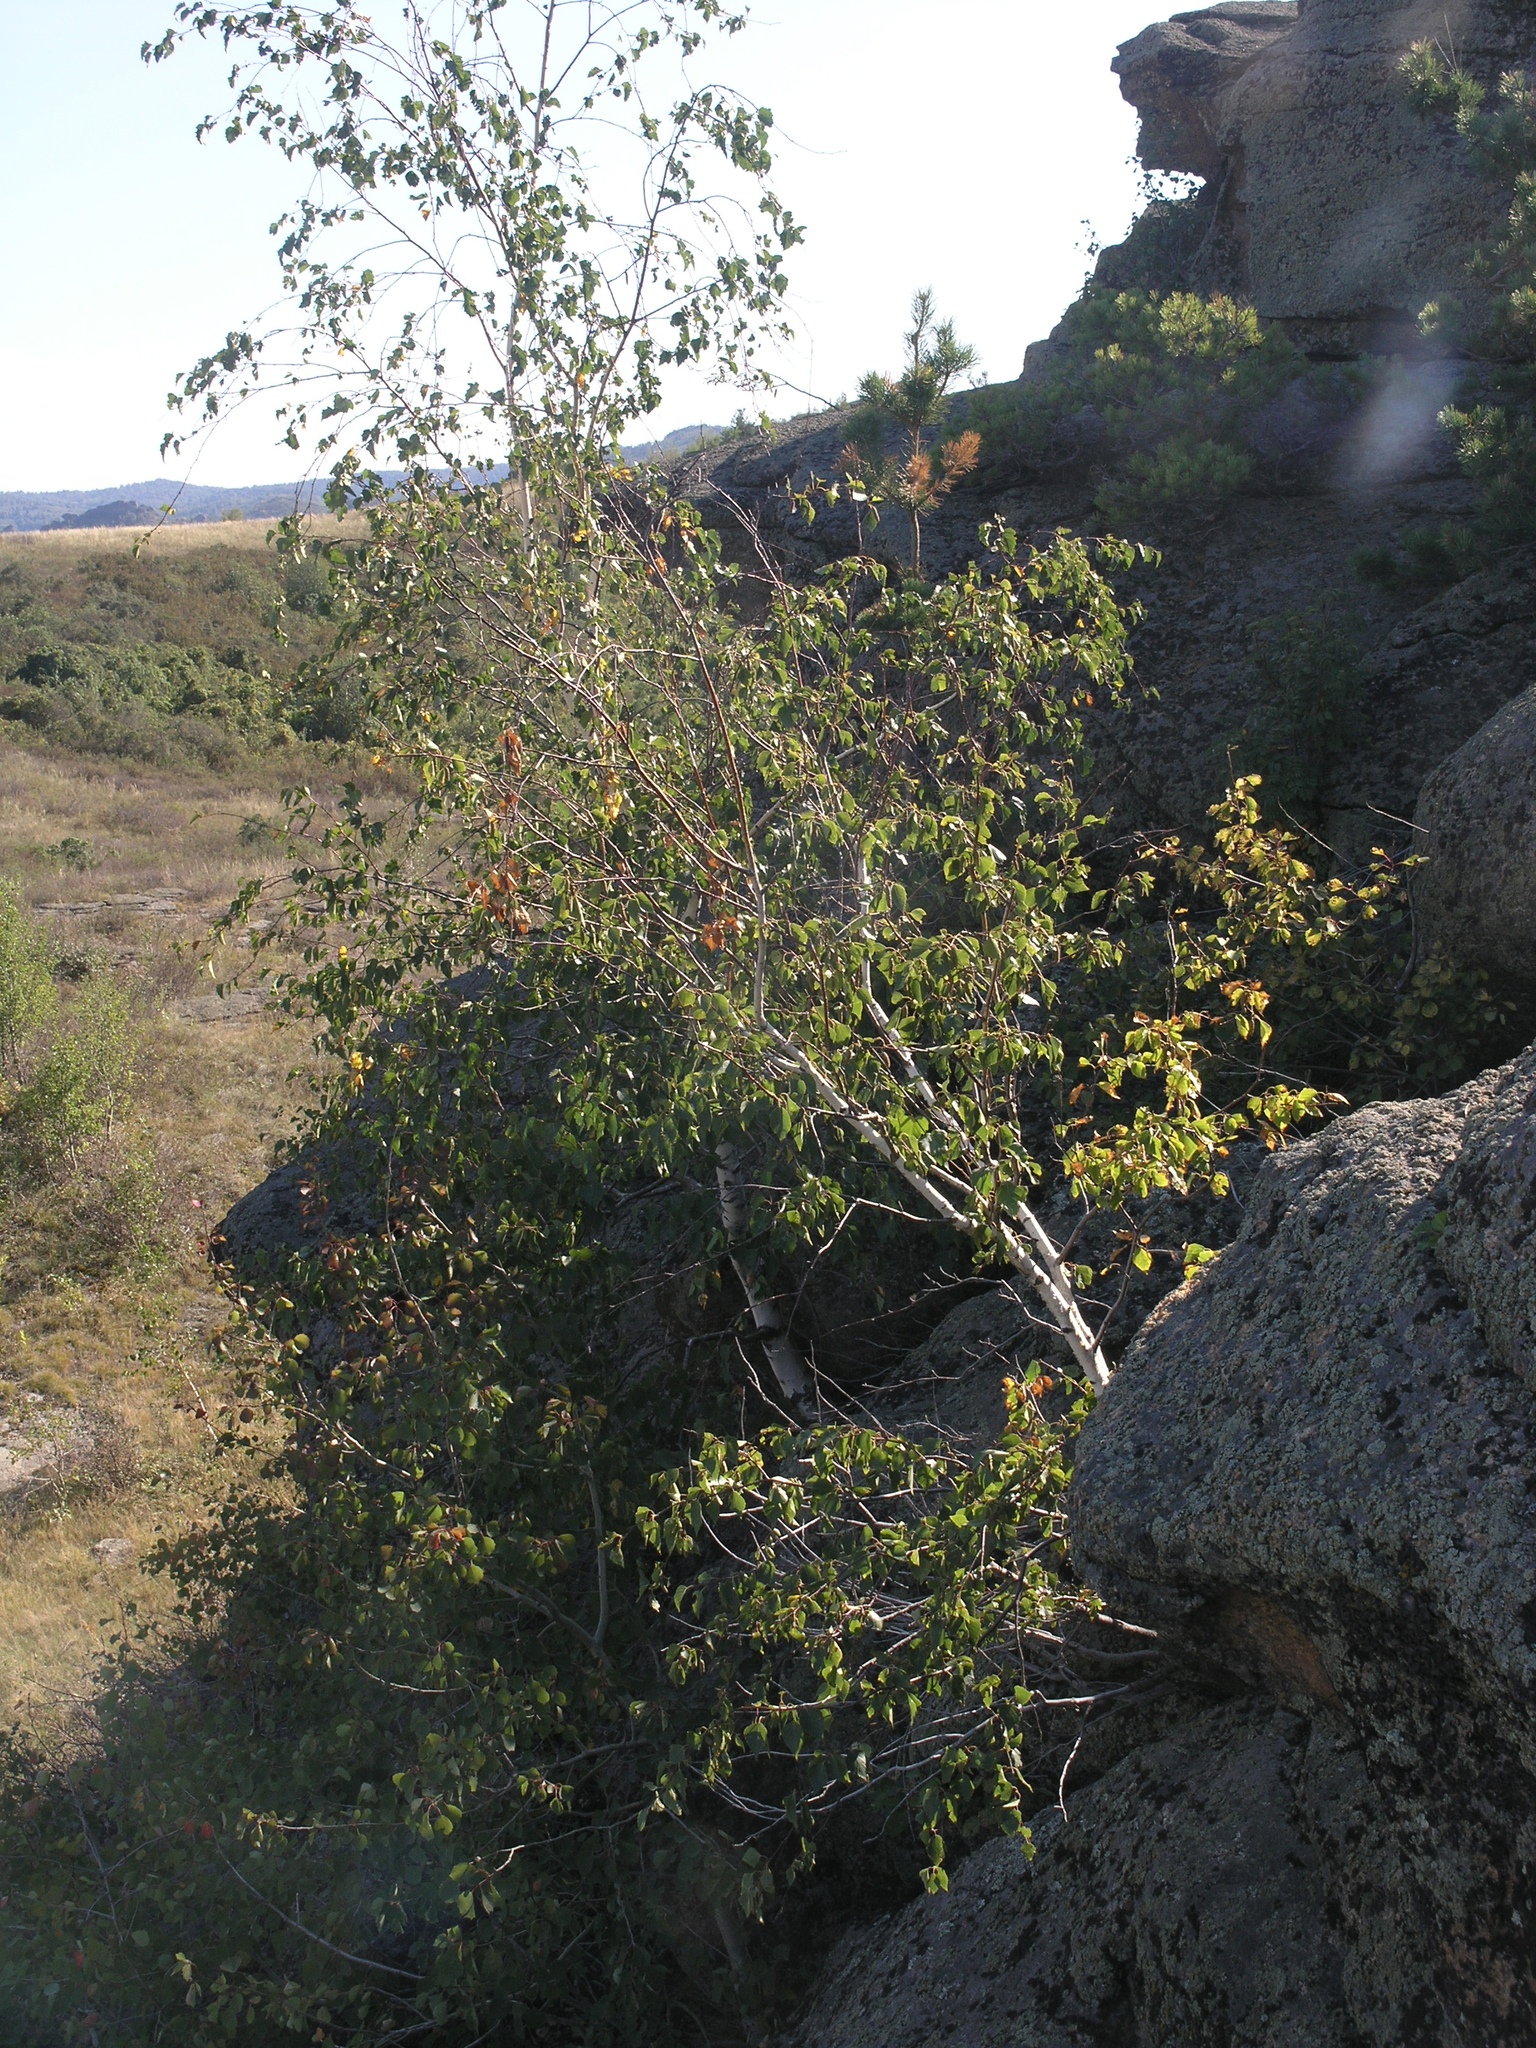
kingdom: Plantae
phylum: Tracheophyta
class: Magnoliopsida
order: Fagales
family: Betulaceae
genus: Betula
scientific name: Betula pendula
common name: Silver birch
